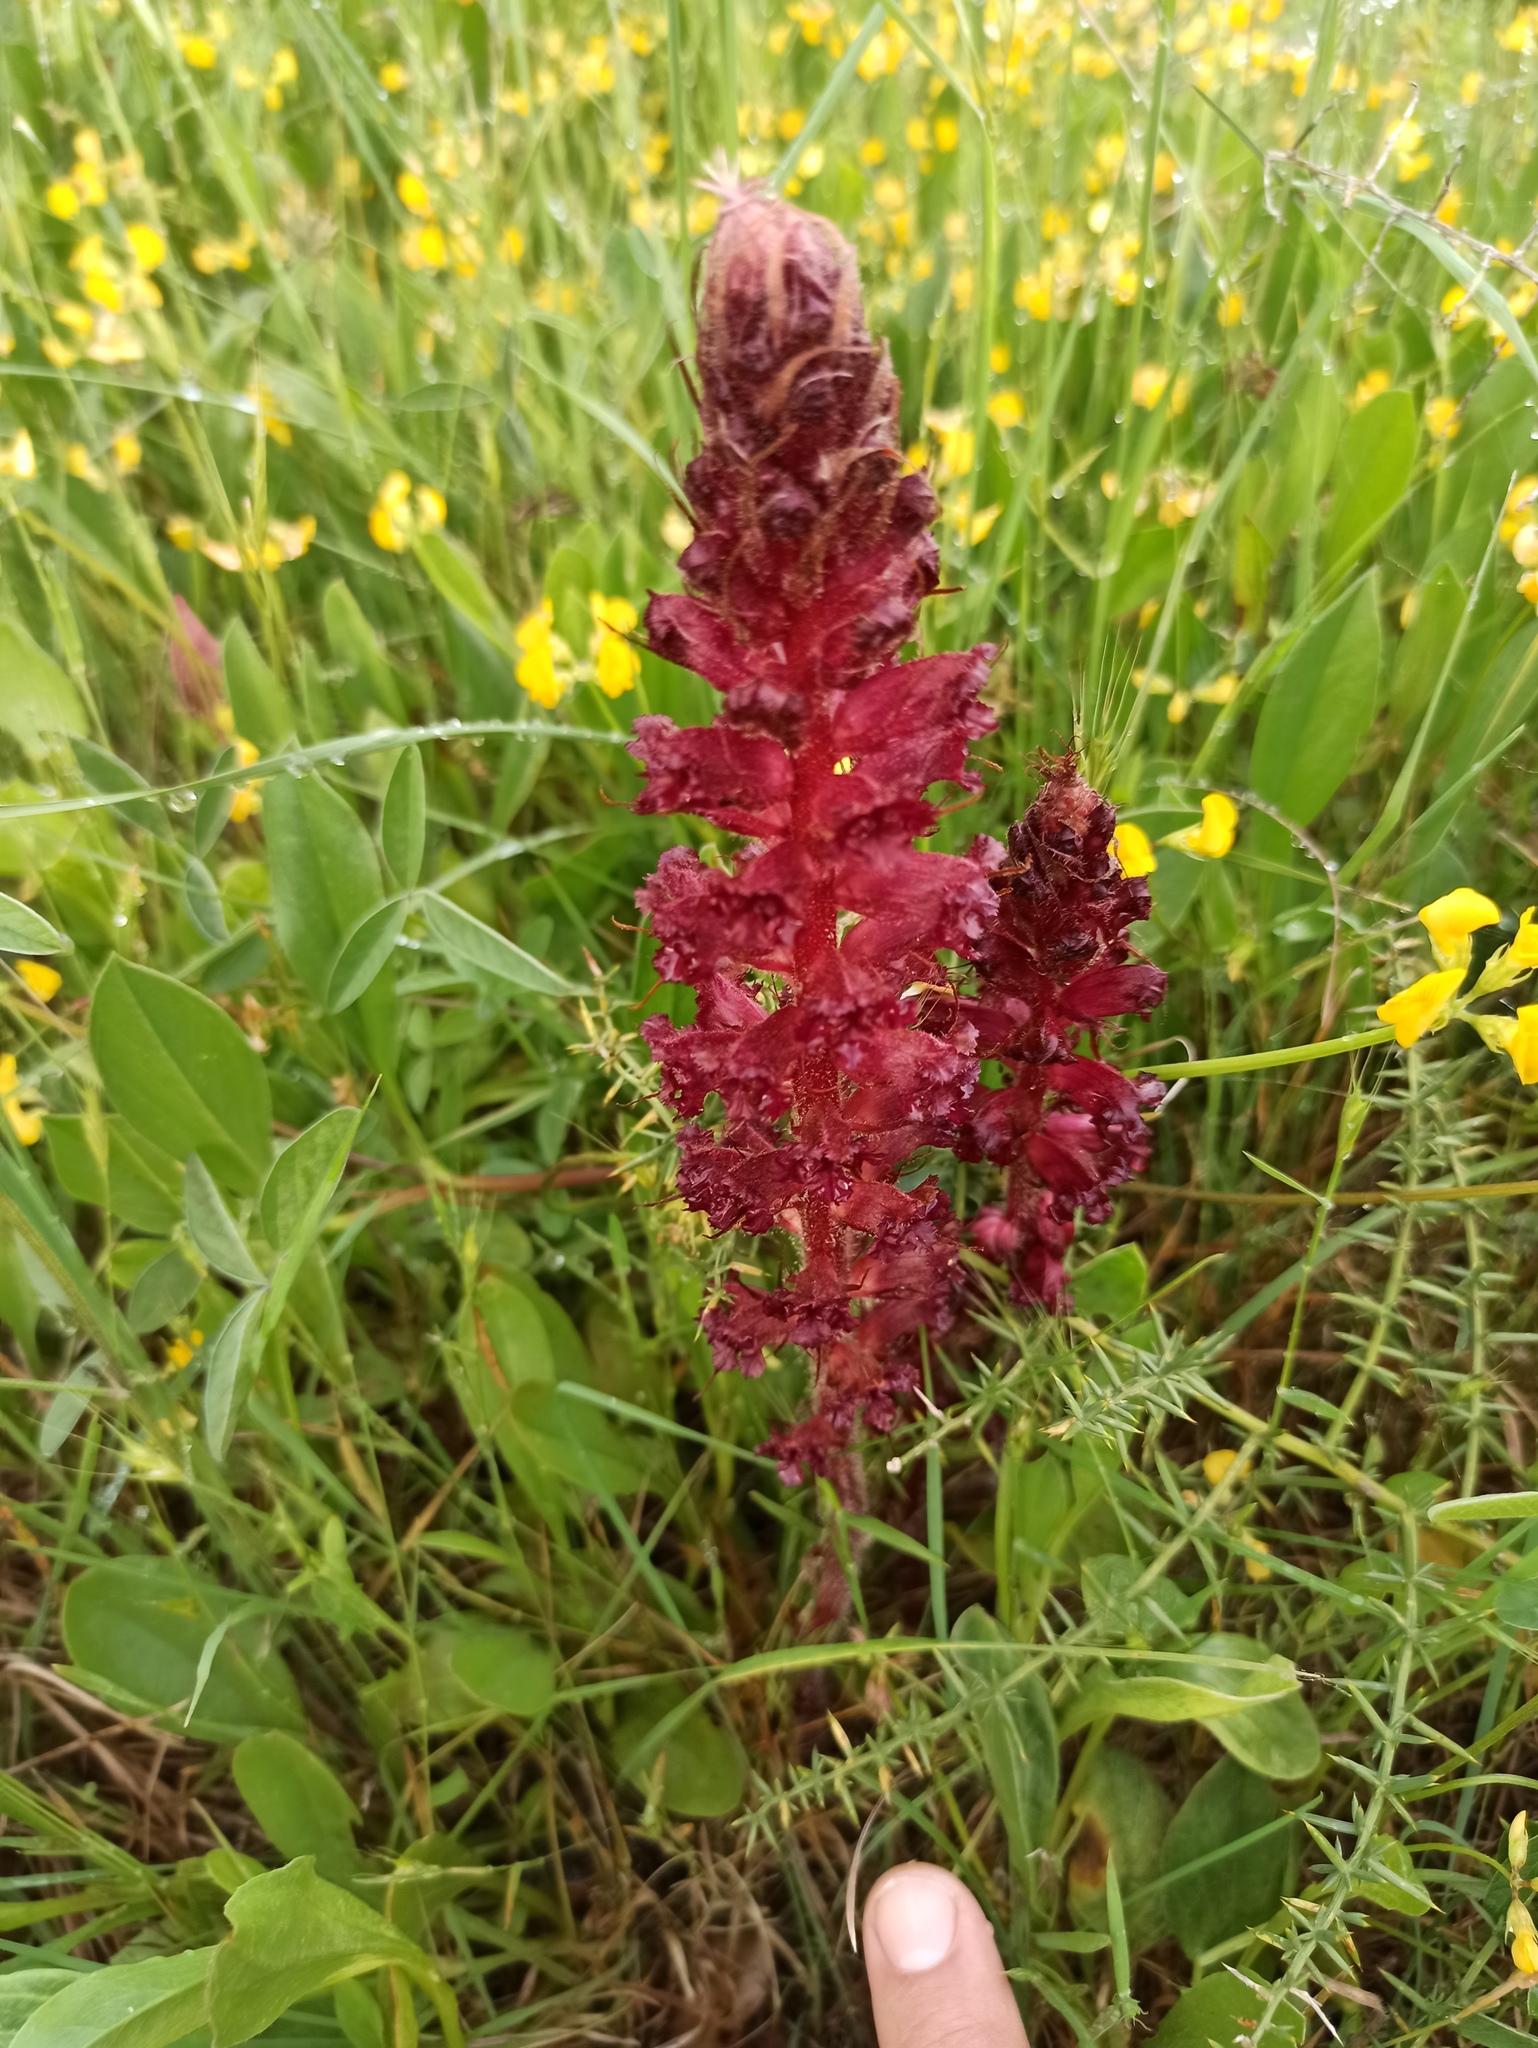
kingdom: Plantae
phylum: Tracheophyta
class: Magnoliopsida
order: Lamiales
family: Orobanchaceae
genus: Orobanche
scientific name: Orobanche foetida
